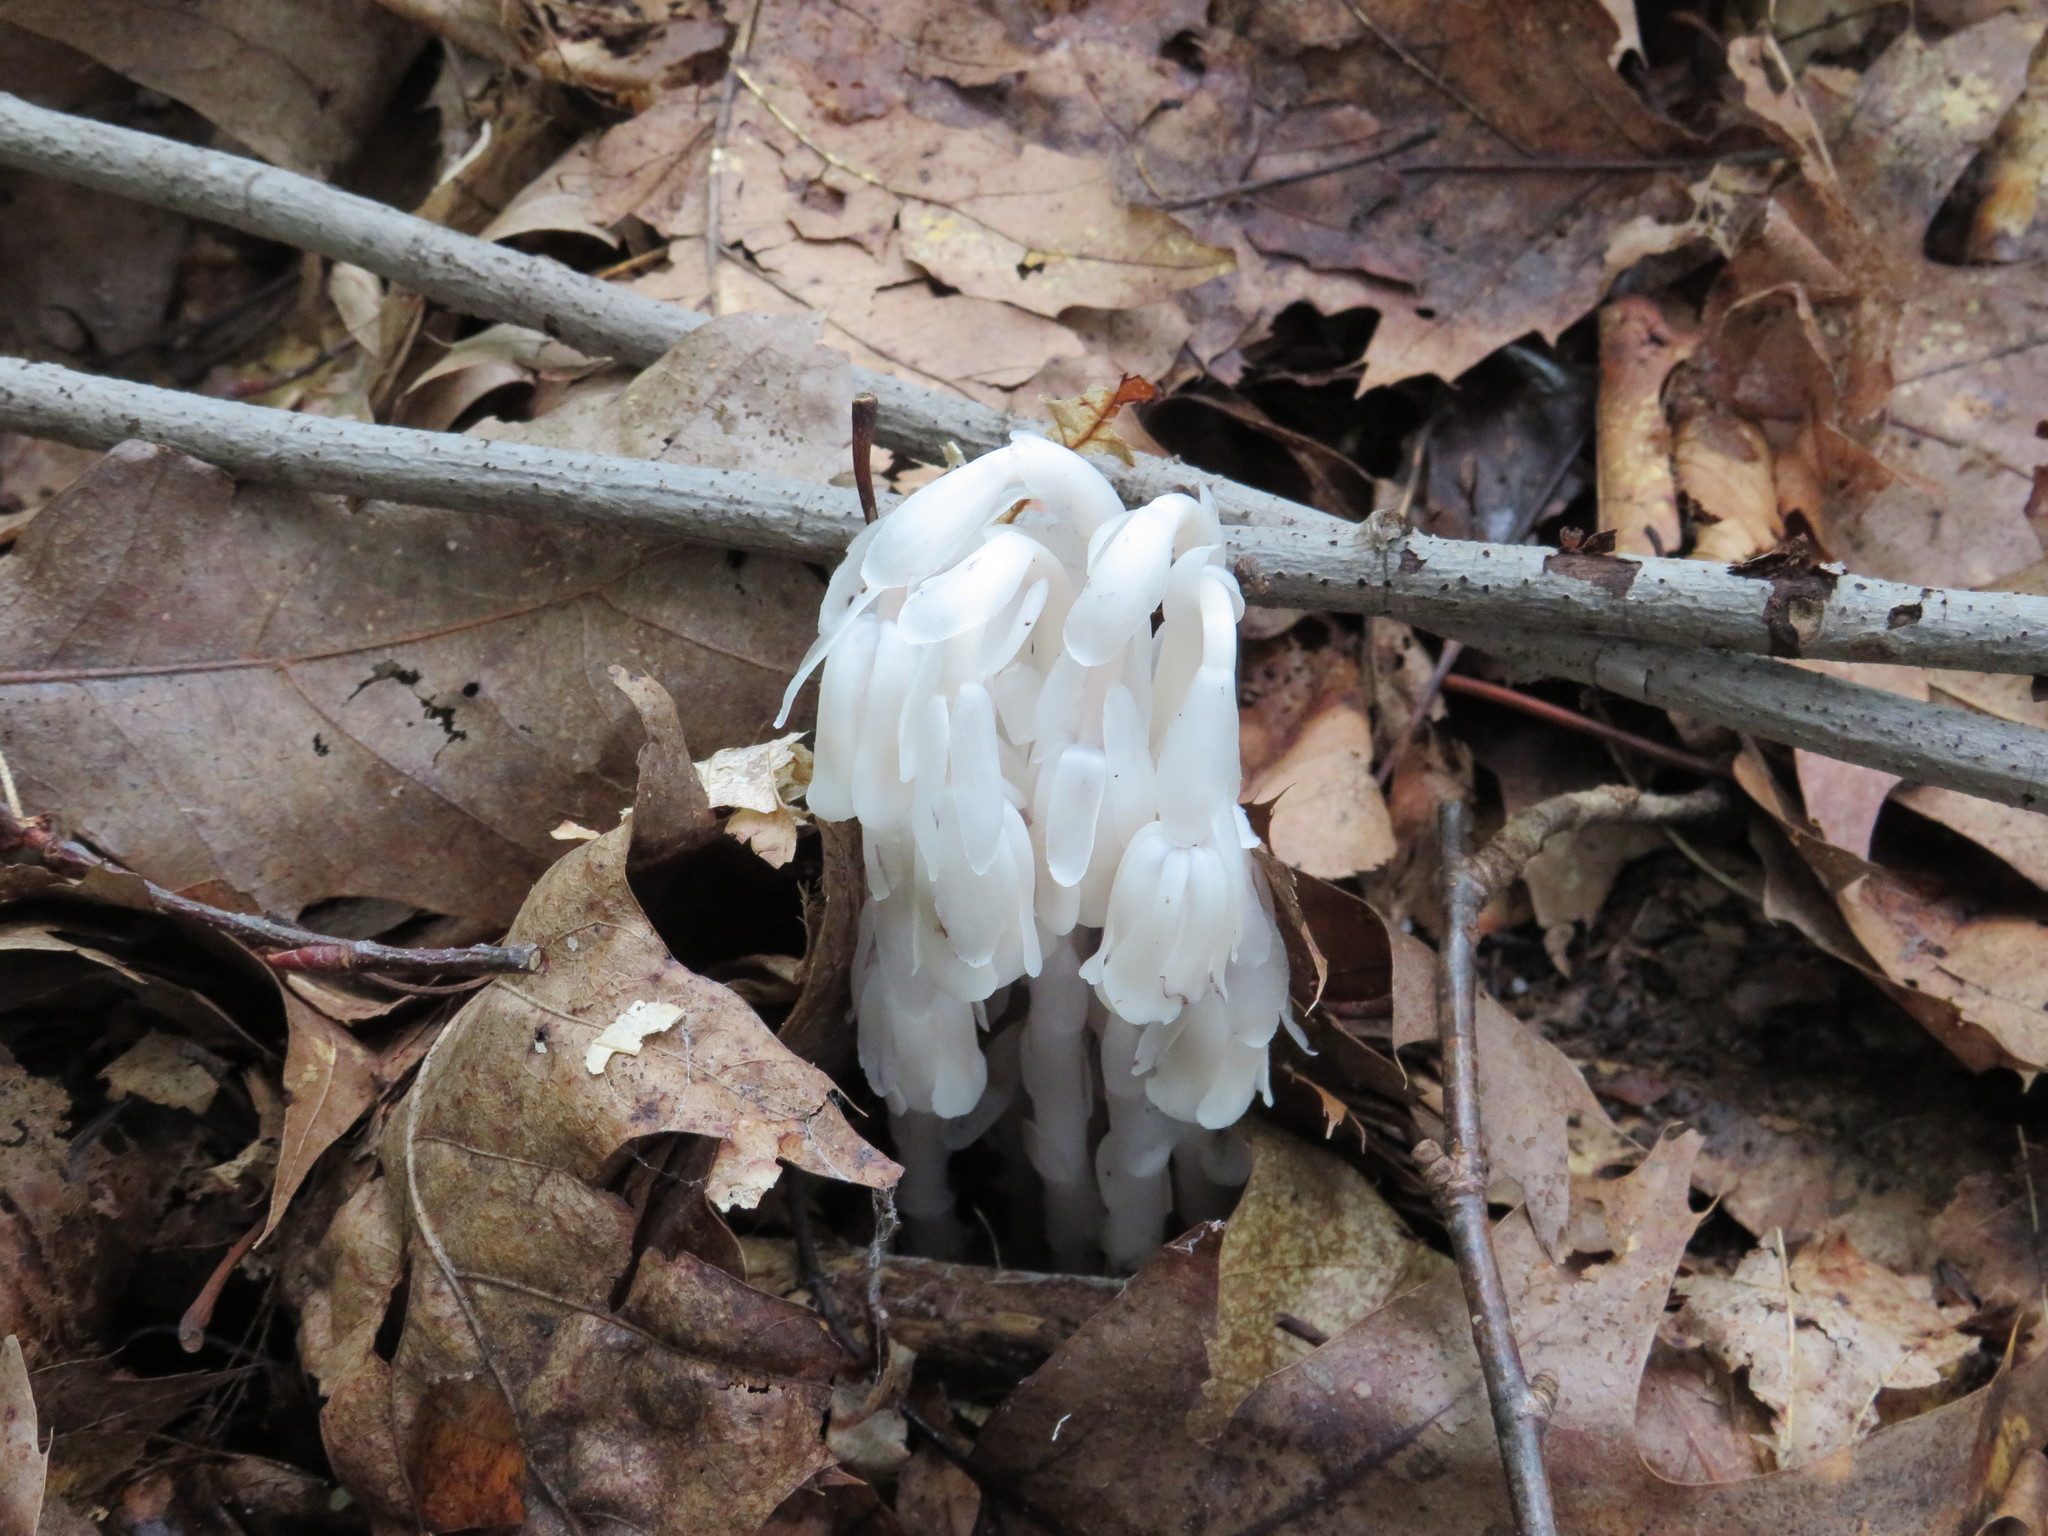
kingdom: Plantae
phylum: Tracheophyta
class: Magnoliopsida
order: Ericales
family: Ericaceae
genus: Monotropa
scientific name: Monotropa uniflora
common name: Convulsion root
